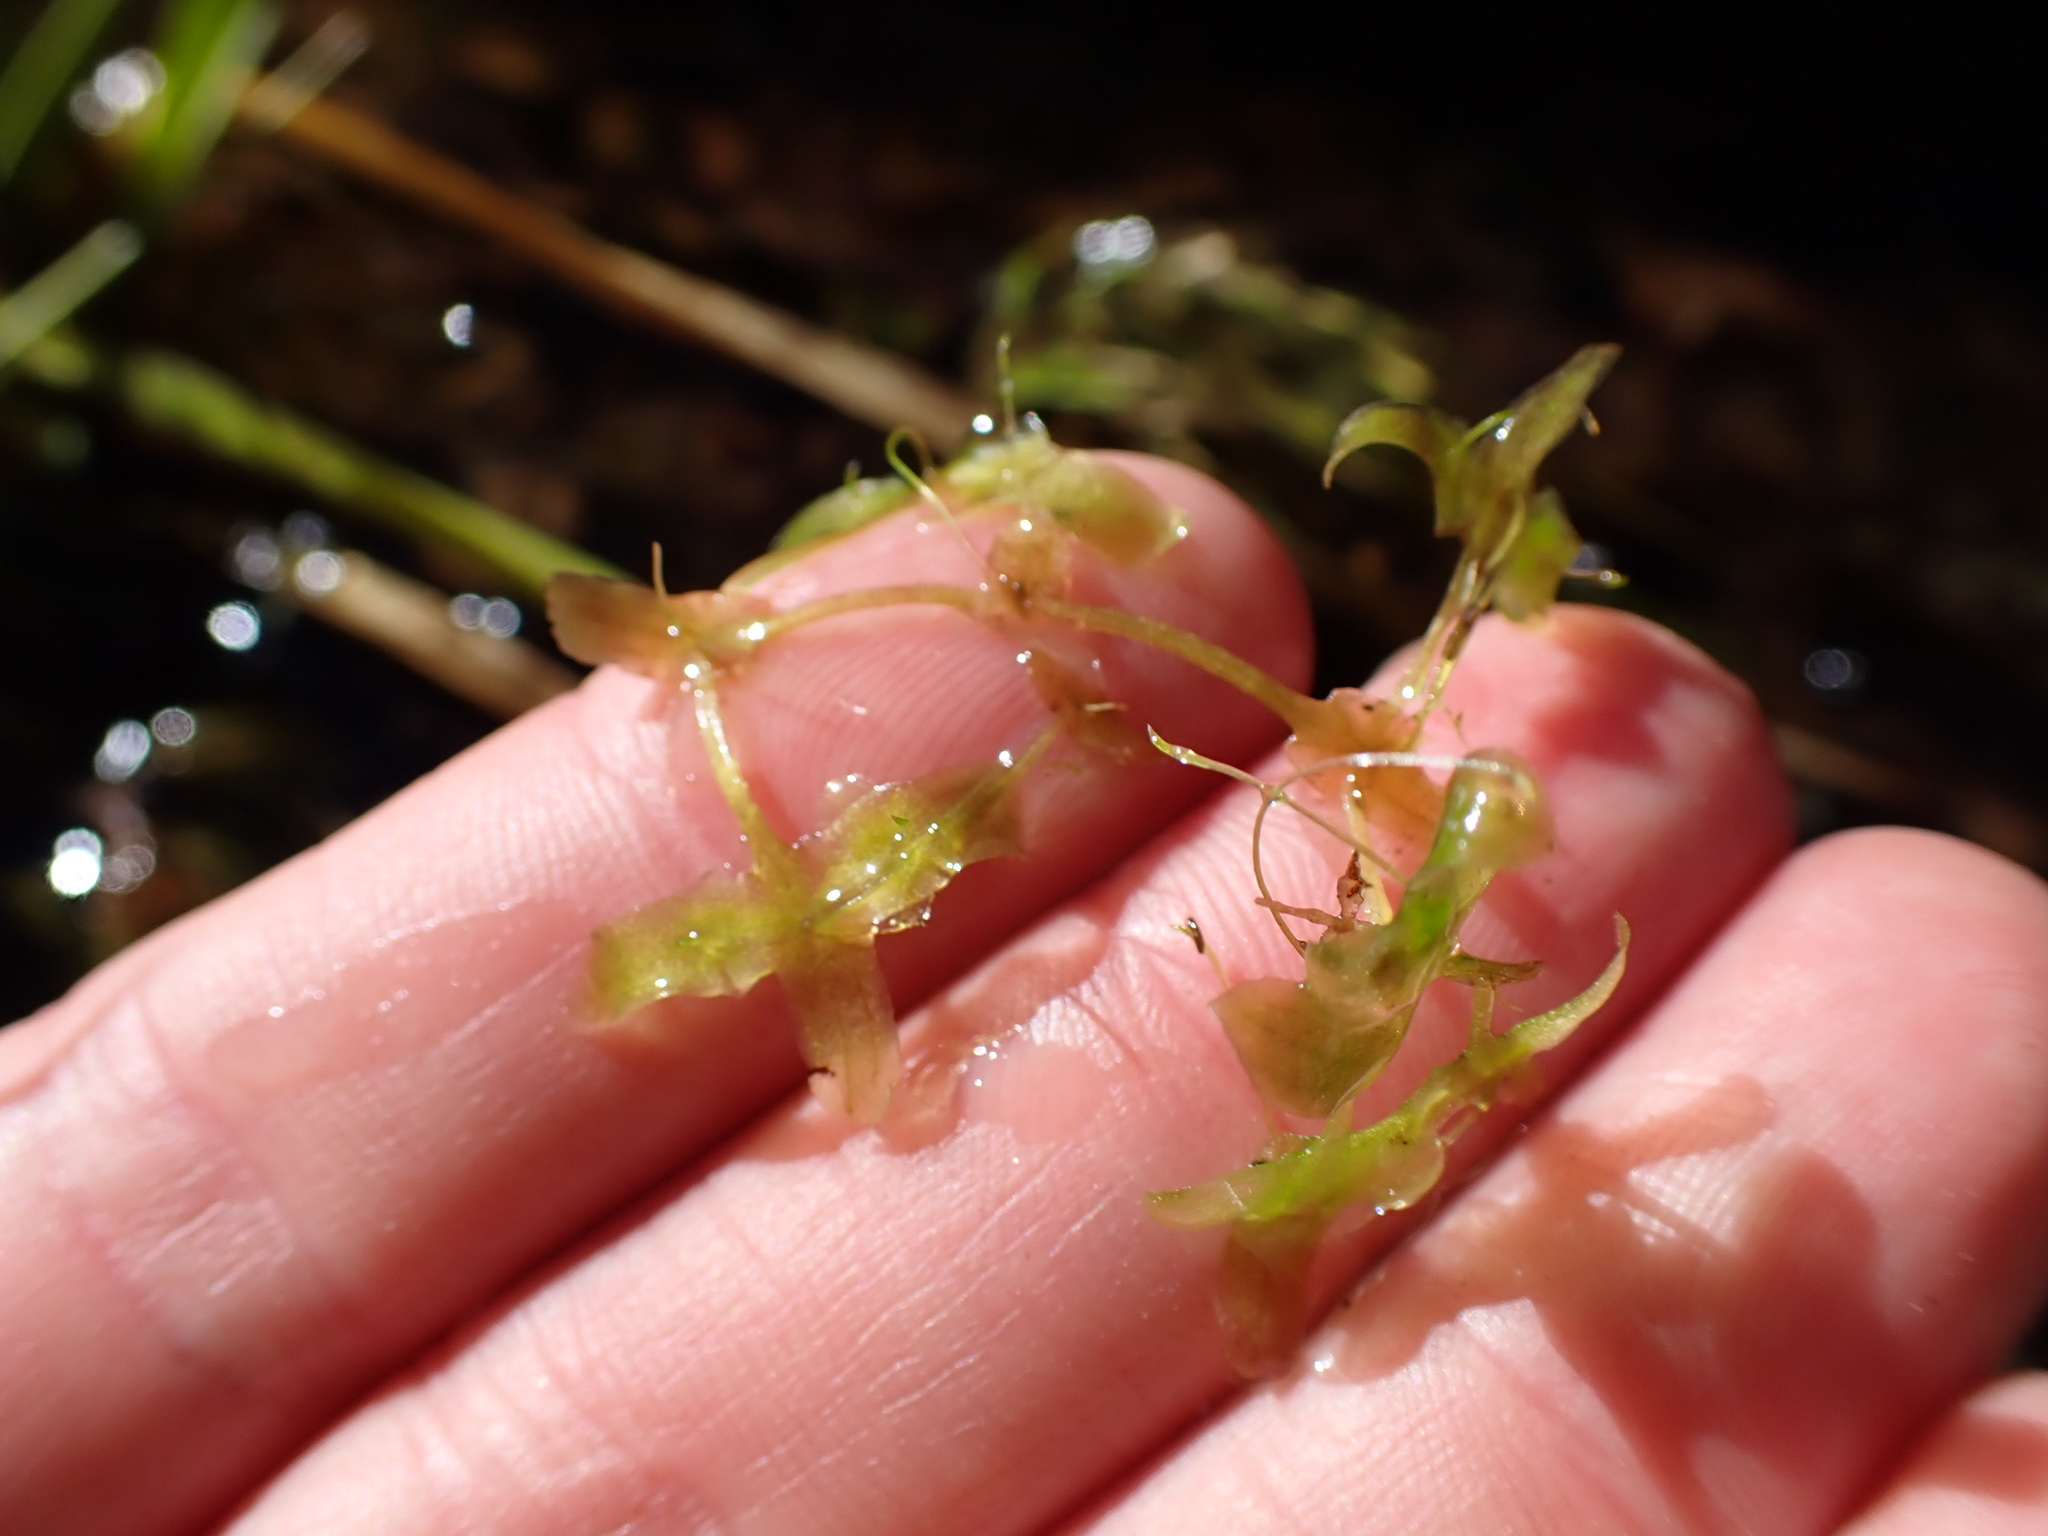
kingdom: Plantae
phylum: Tracheophyta
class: Liliopsida
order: Alismatales
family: Araceae
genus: Lemna
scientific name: Lemna trisulca
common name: Ivy-leaved duckweed
